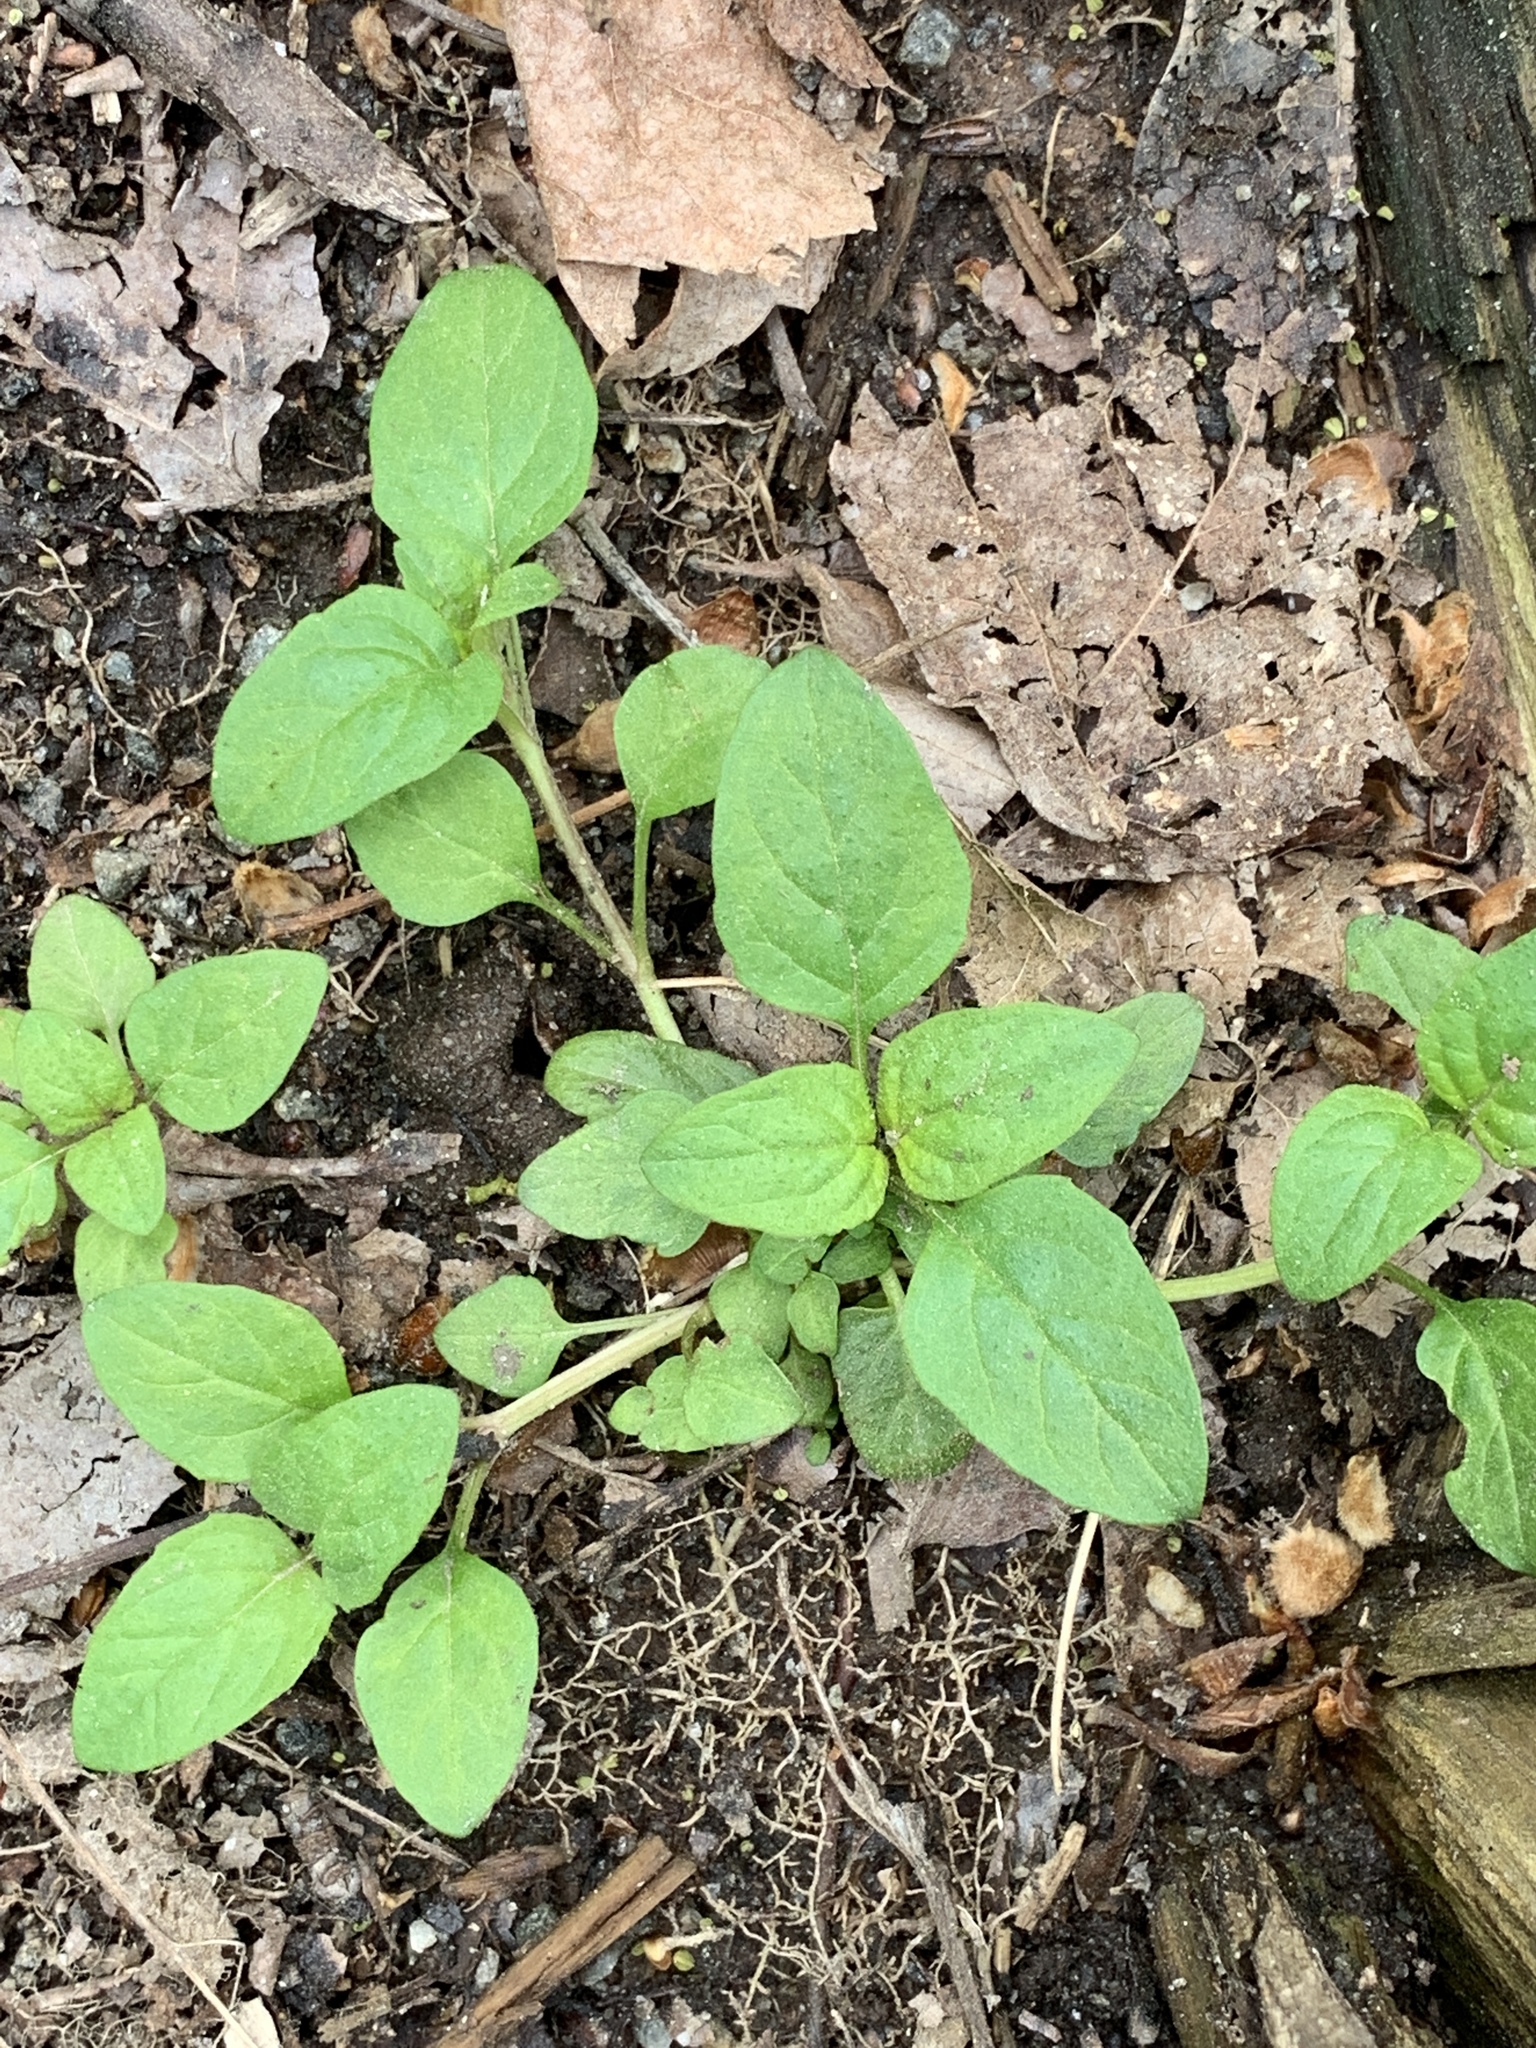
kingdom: Plantae
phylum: Tracheophyta
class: Magnoliopsida
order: Lamiales
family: Lamiaceae
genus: Prunella
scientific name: Prunella vulgaris
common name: Heal-all
